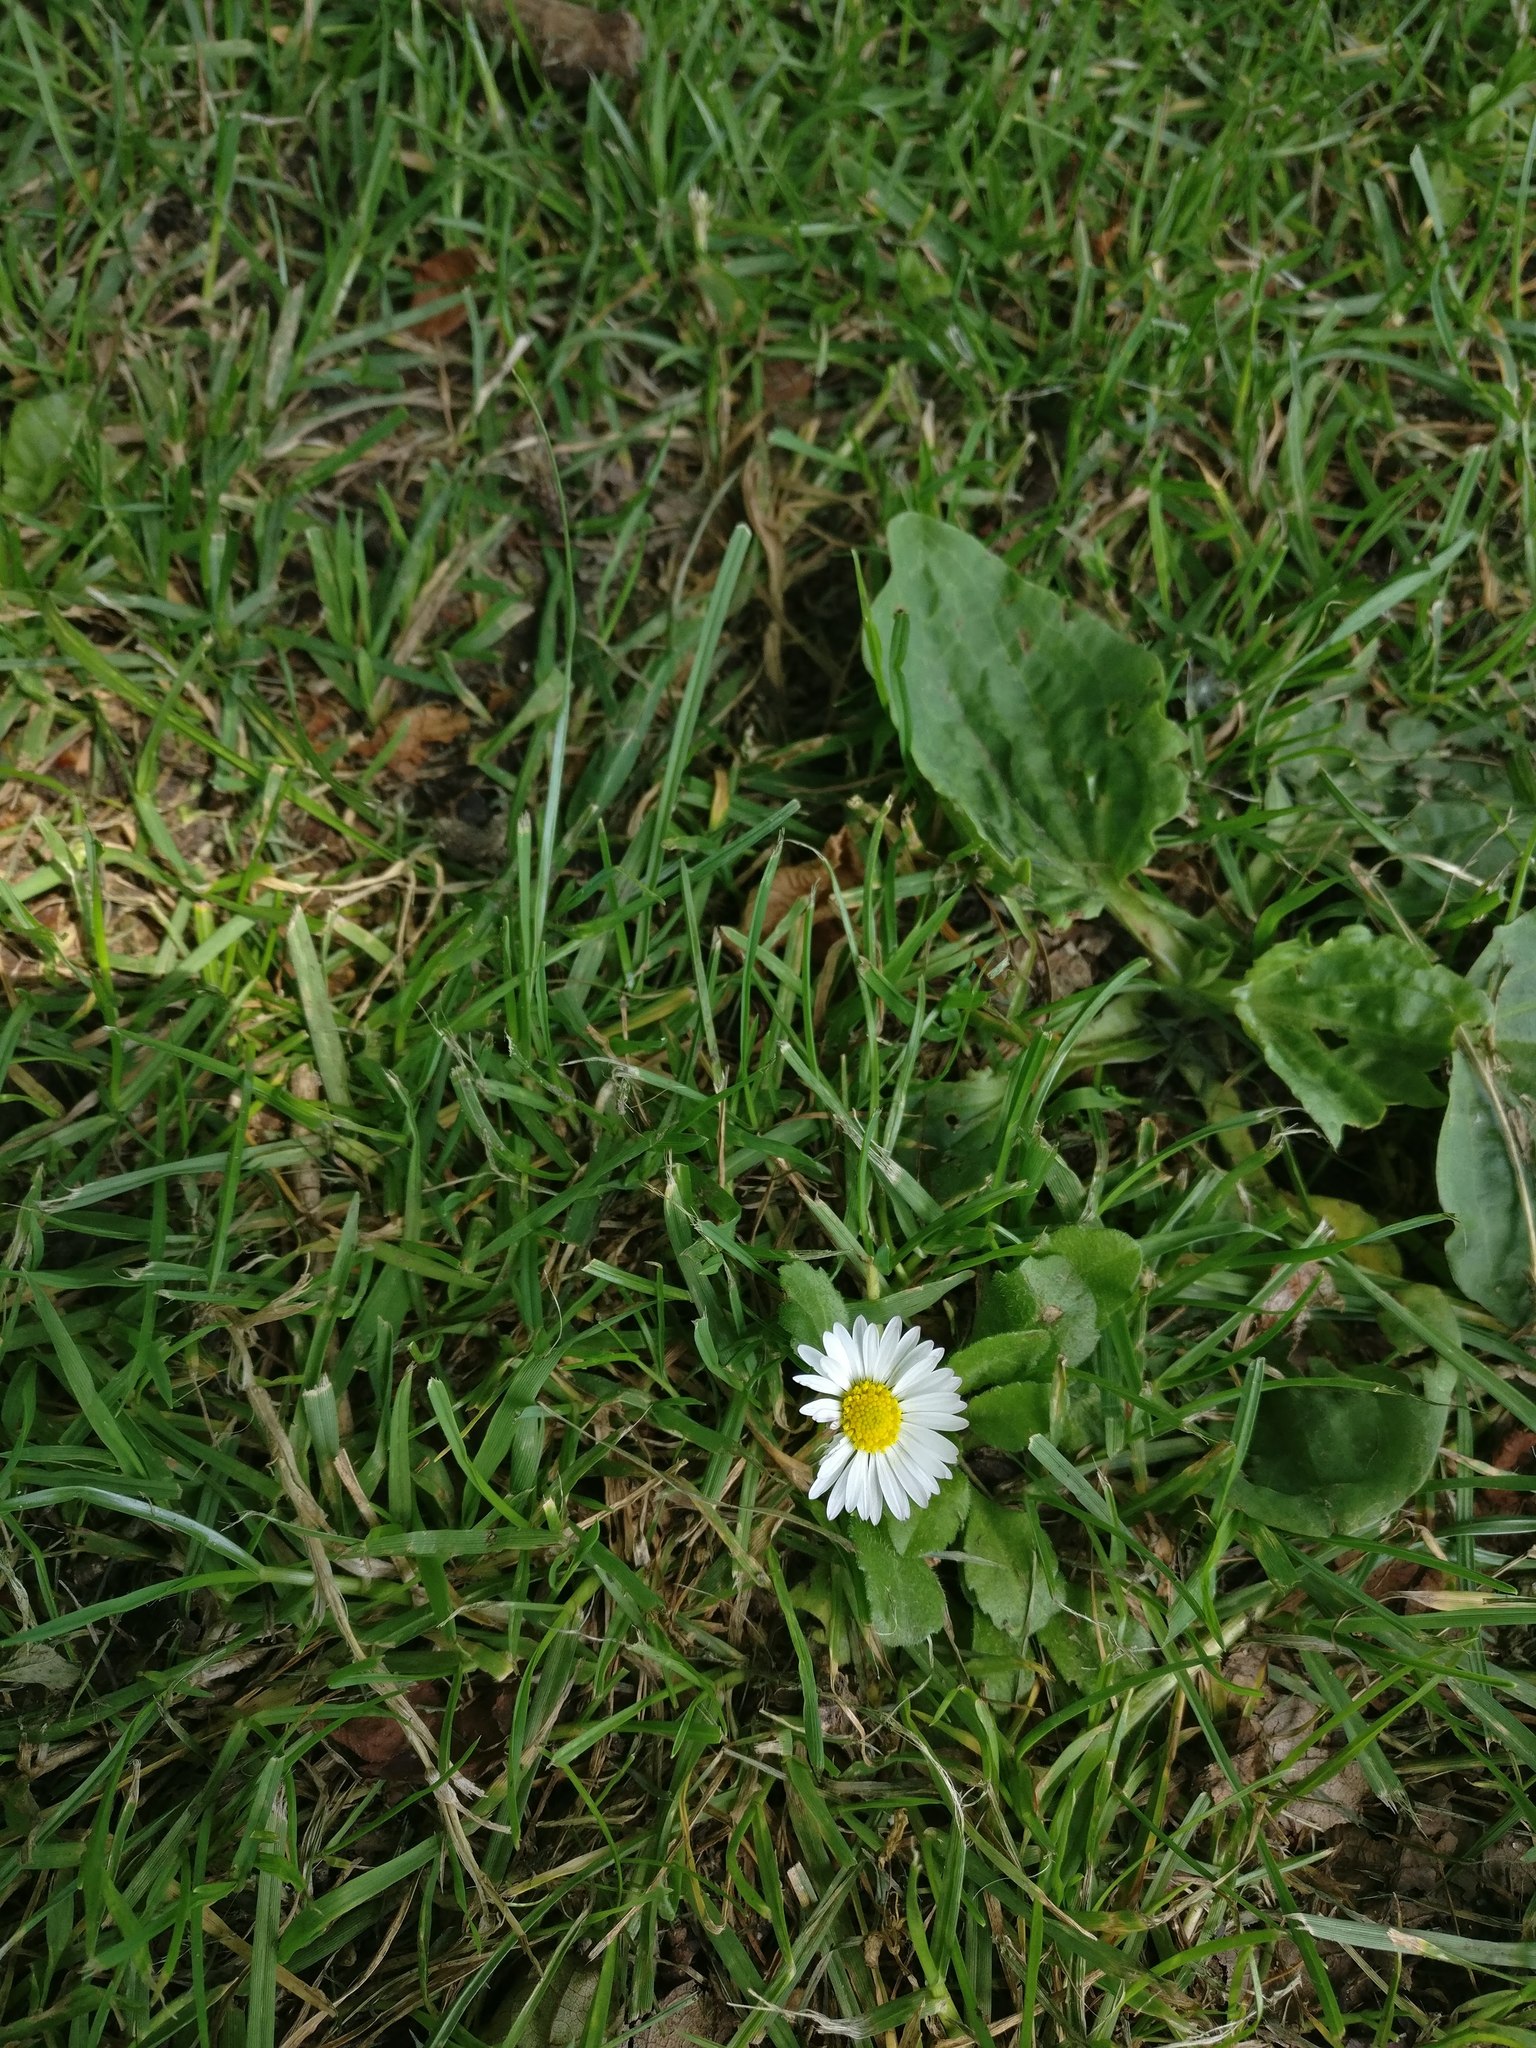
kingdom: Plantae
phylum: Tracheophyta
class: Magnoliopsida
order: Asterales
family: Asteraceae
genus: Bellis
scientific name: Bellis perennis
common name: Lawndaisy
